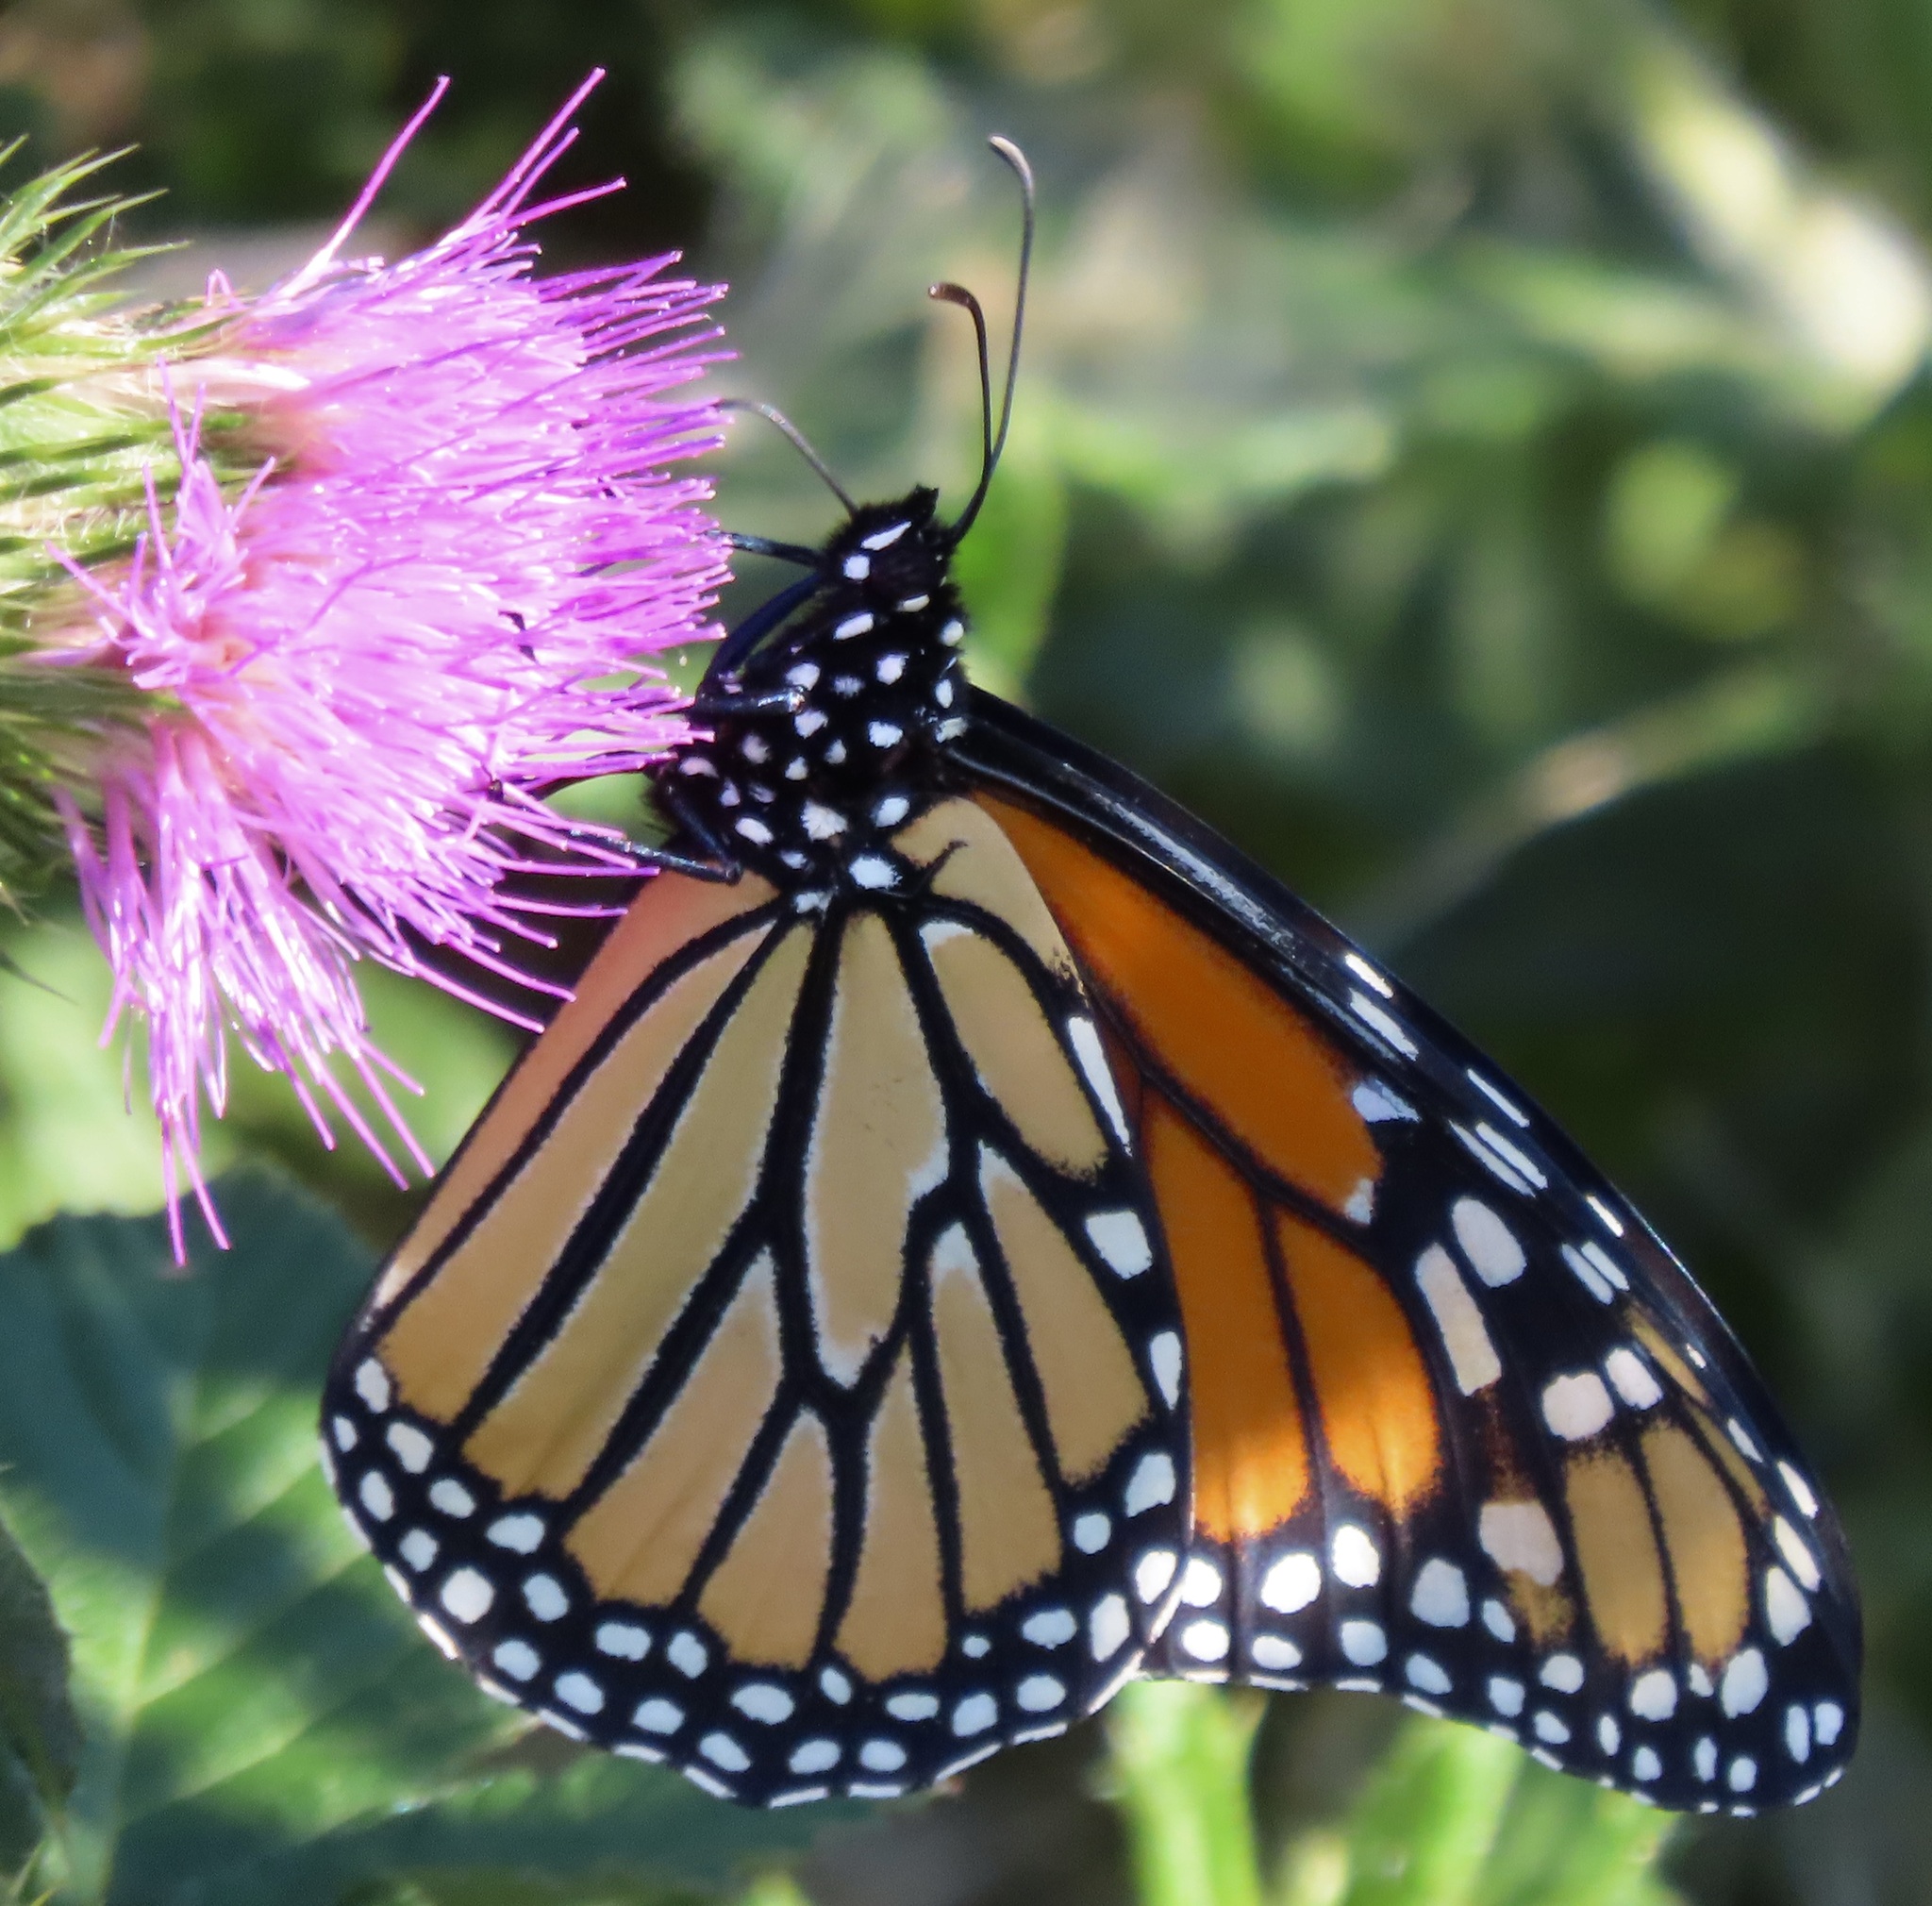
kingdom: Animalia
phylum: Arthropoda
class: Insecta
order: Lepidoptera
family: Nymphalidae
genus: Danaus
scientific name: Danaus plexippus
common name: Monarch
